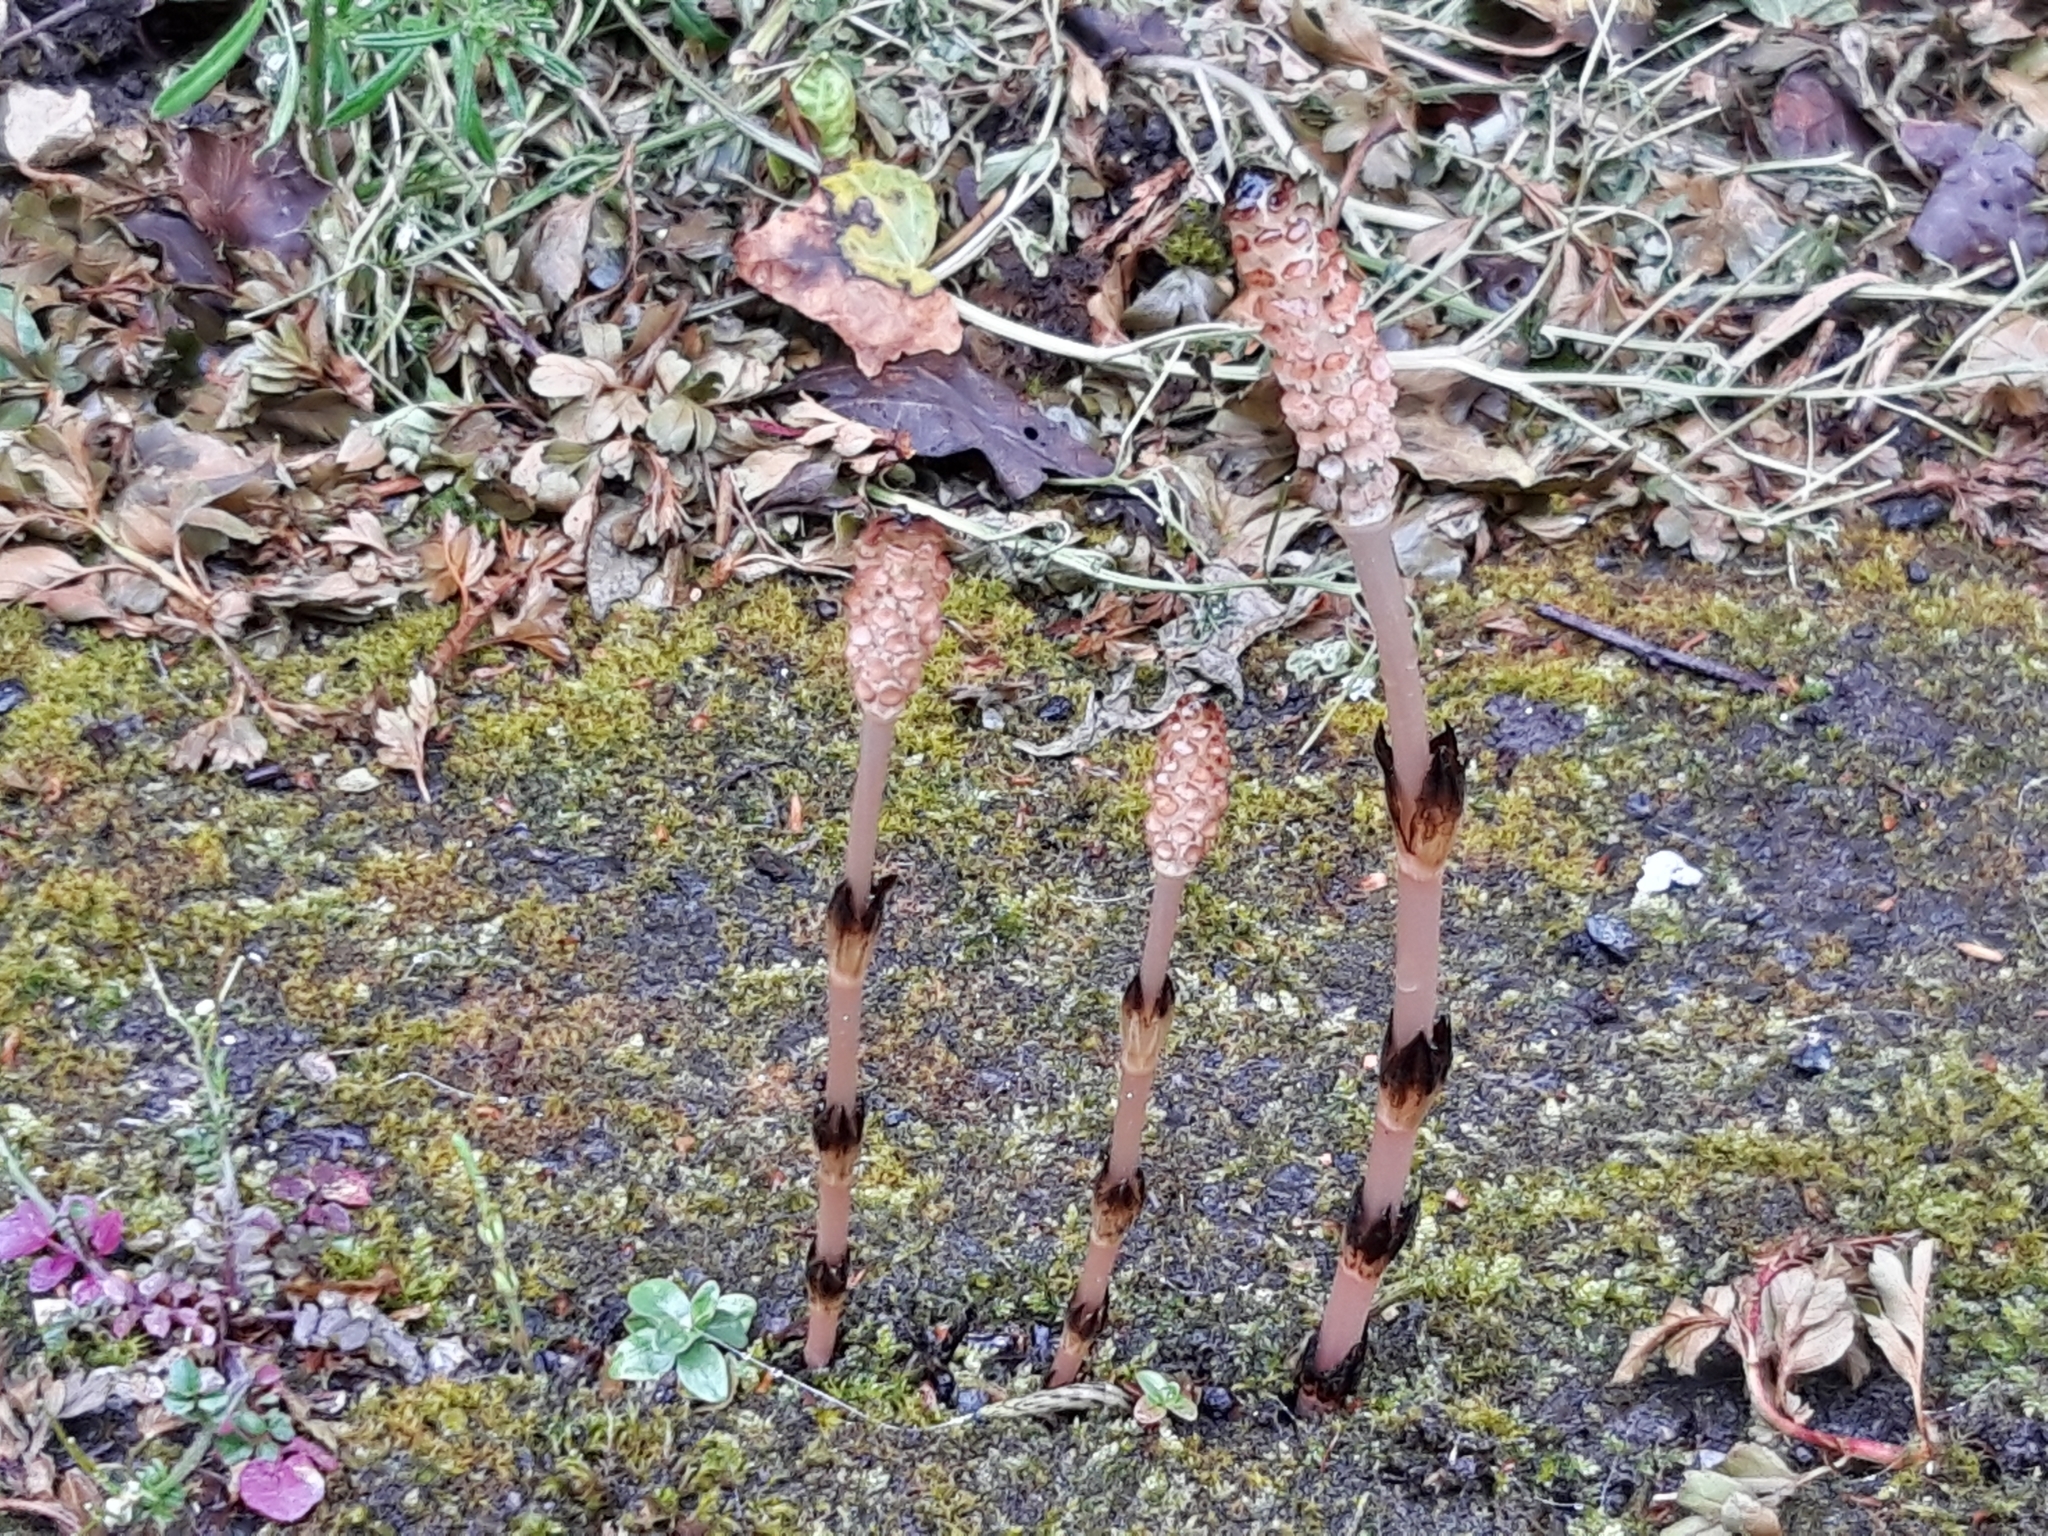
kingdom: Plantae
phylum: Tracheophyta
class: Polypodiopsida
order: Equisetales
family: Equisetaceae
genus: Equisetum
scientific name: Equisetum arvense
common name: Field horsetail
